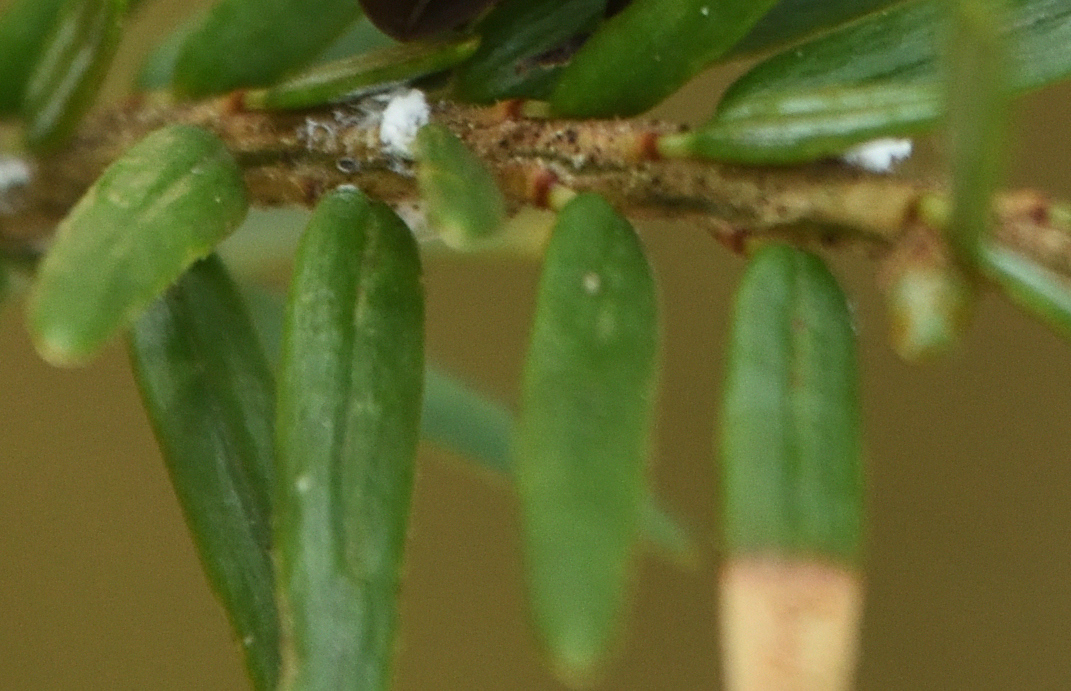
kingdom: Plantae
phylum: Tracheophyta
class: Pinopsida
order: Pinales
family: Pinaceae
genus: Tsuga
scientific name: Tsuga canadensis
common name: Eastern hemlock
